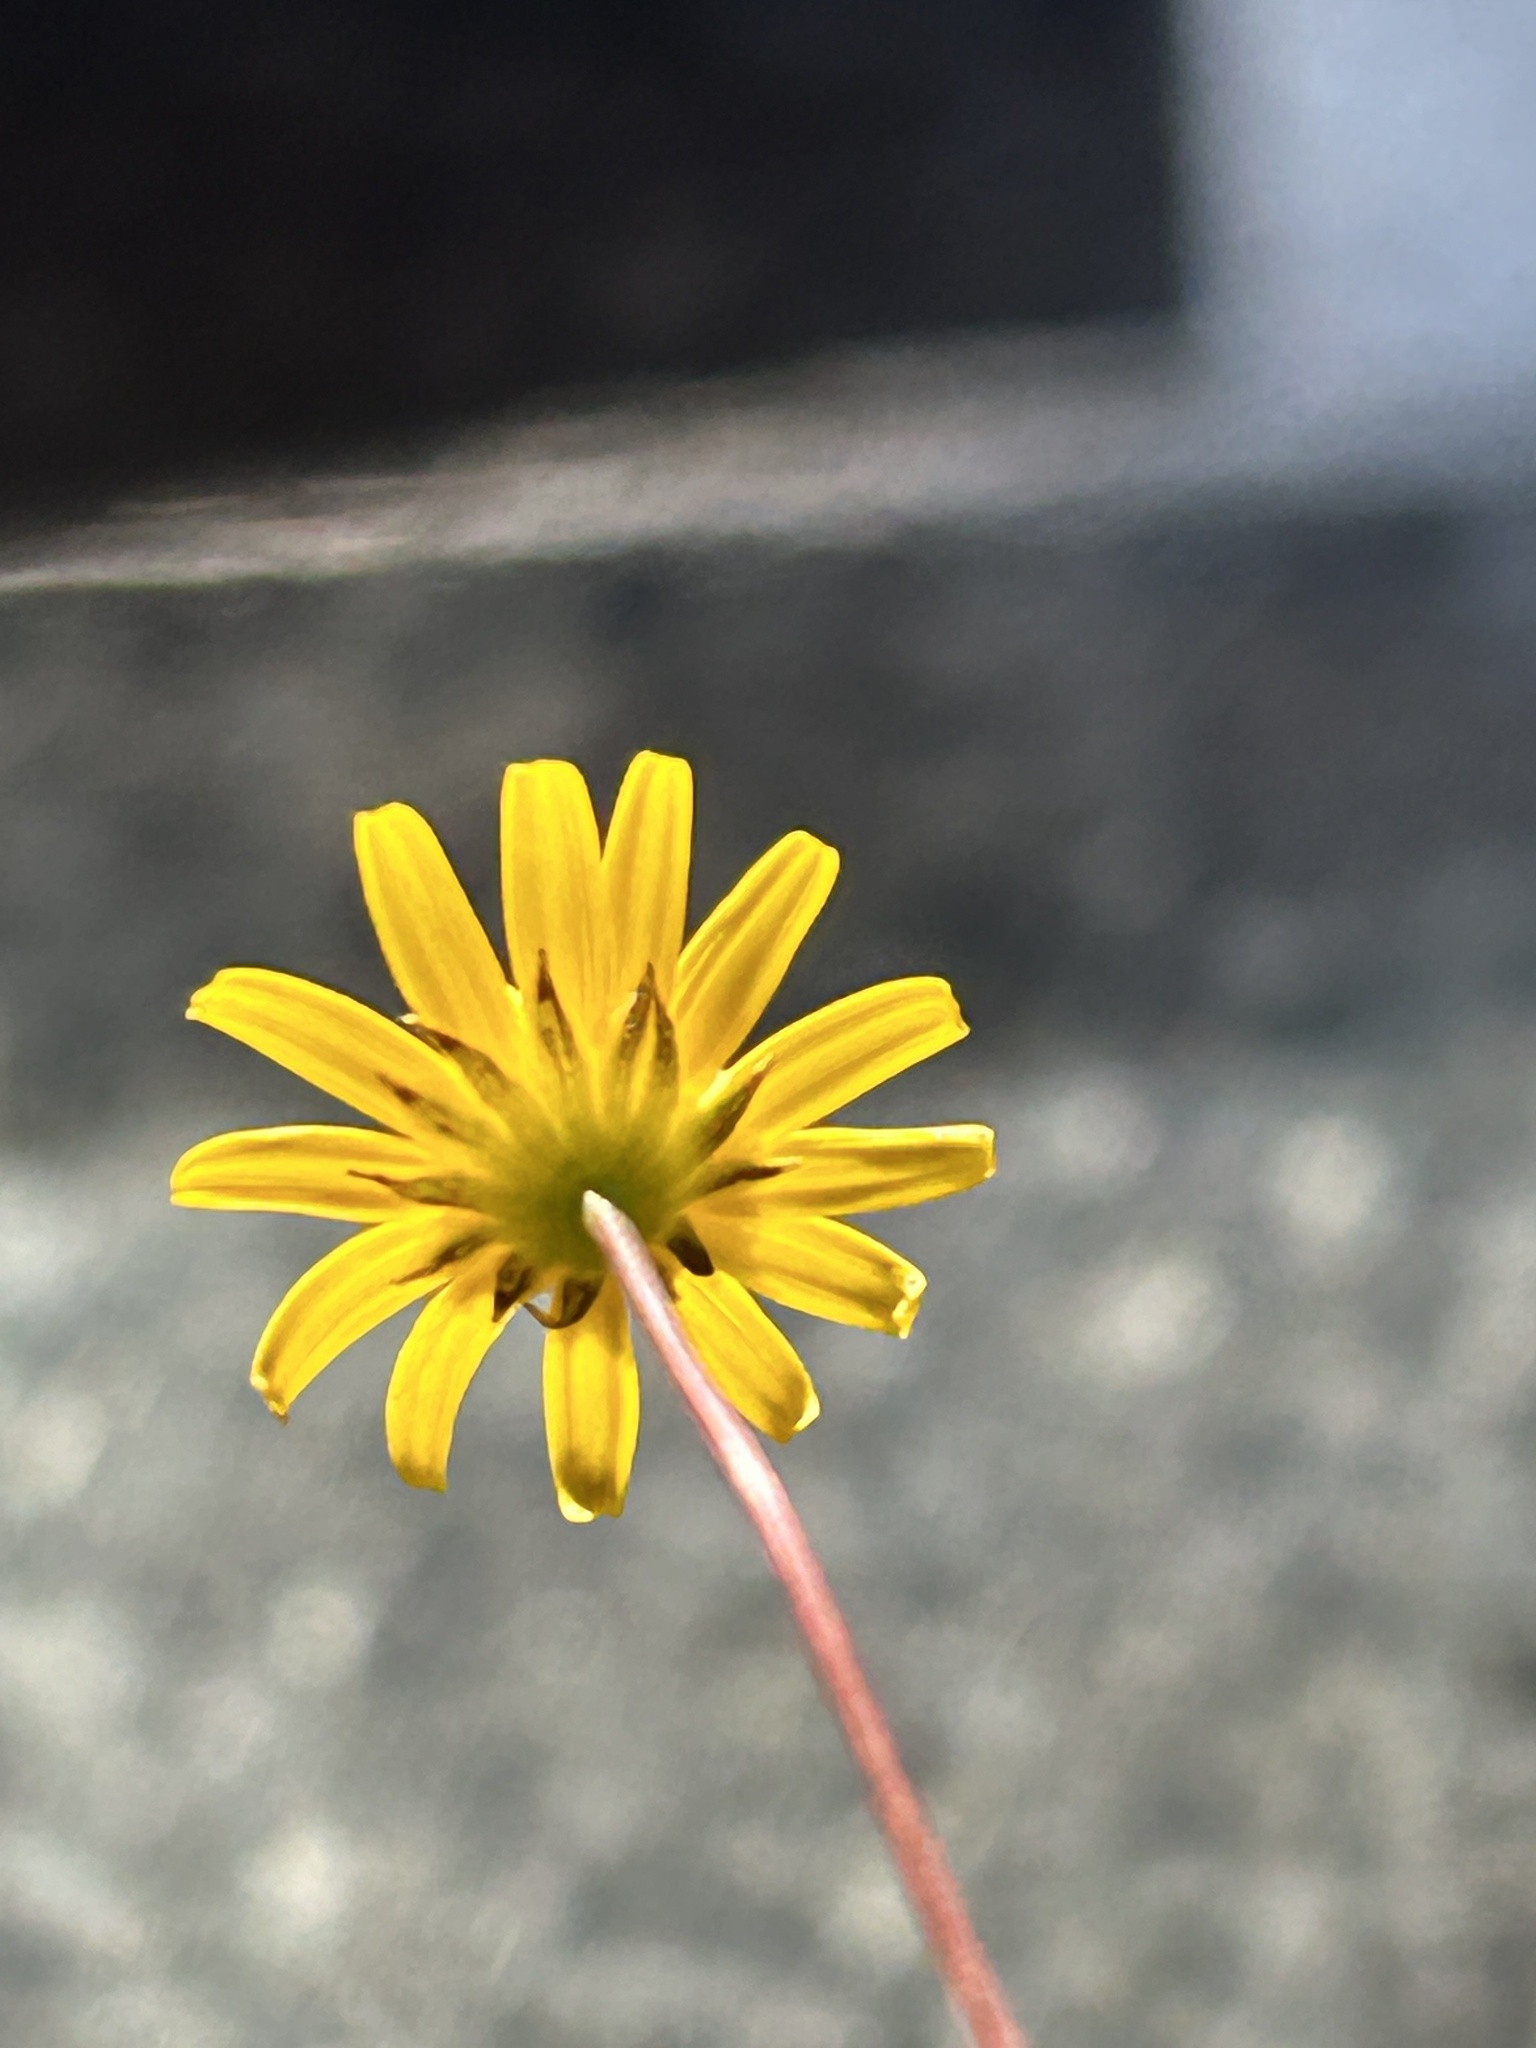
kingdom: Plantae
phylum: Tracheophyta
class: Magnoliopsida
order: Asterales
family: Asteraceae
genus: Euryops
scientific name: Euryops ericoides
